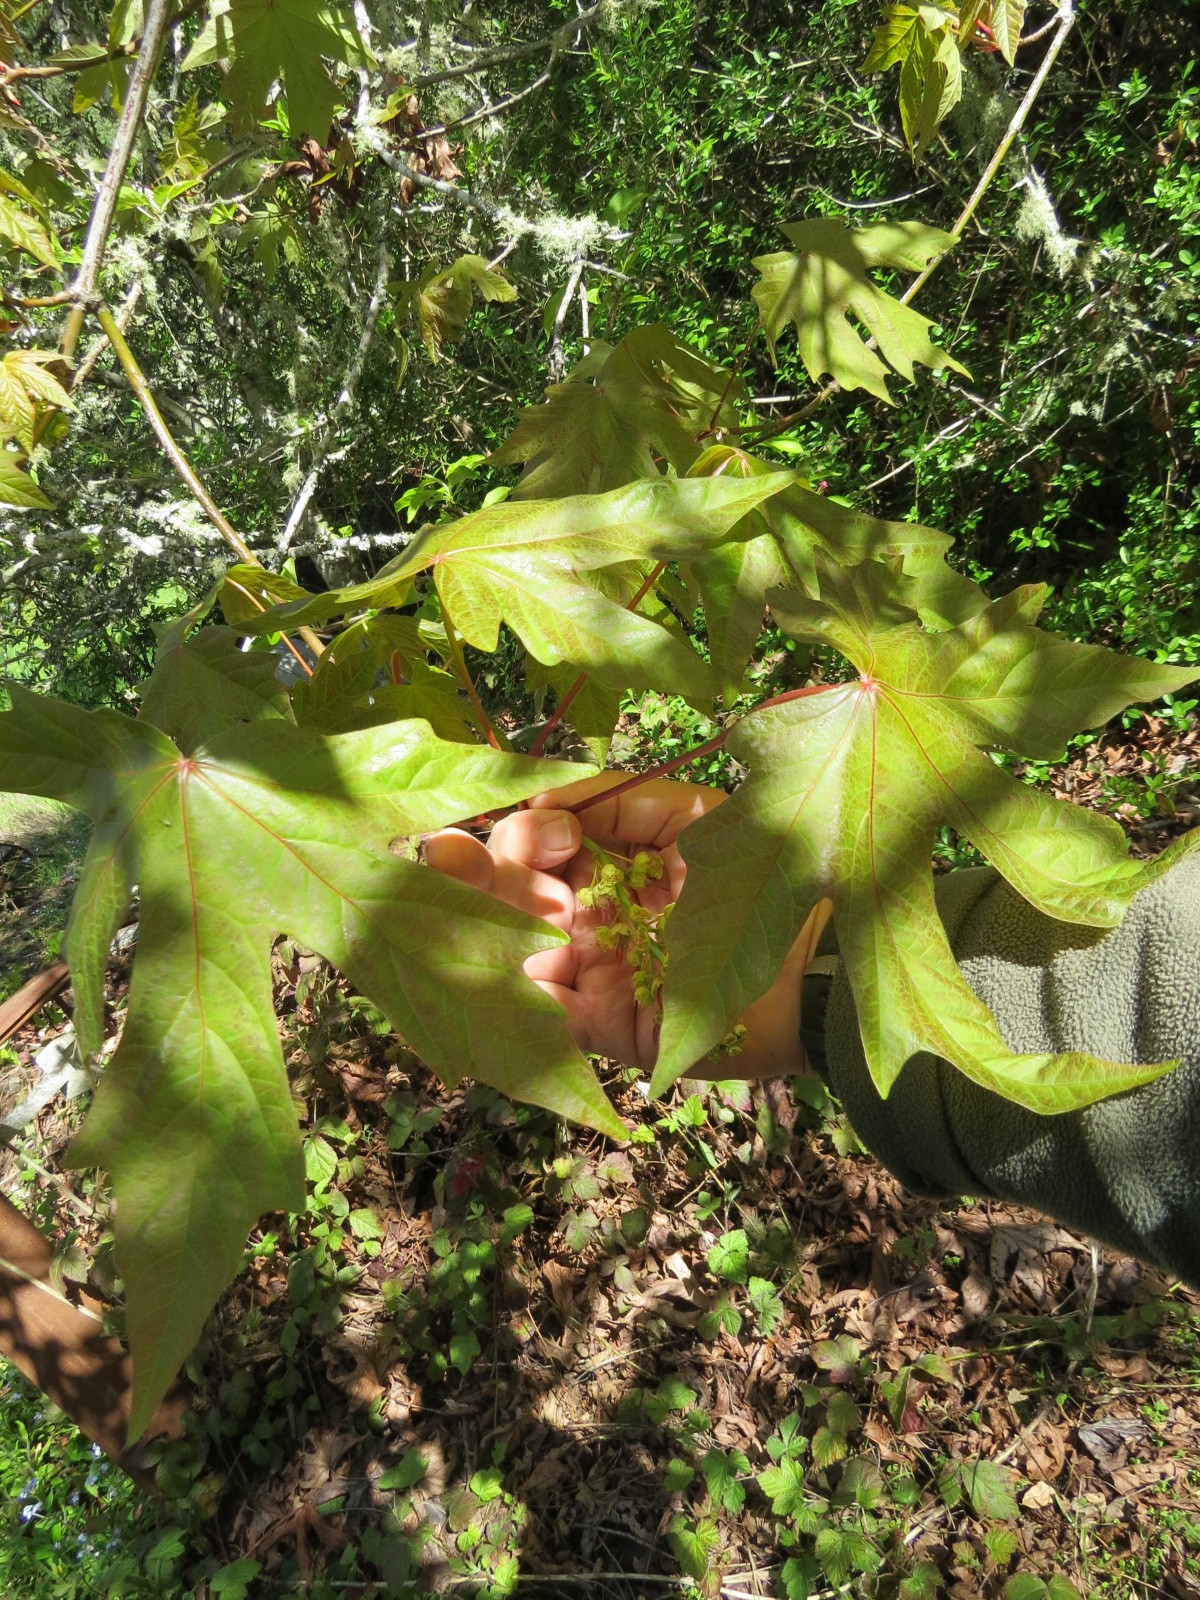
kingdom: Plantae
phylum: Tracheophyta
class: Magnoliopsida
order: Sapindales
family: Sapindaceae
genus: Acer
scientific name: Acer macrophyllum
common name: Oregon maple
